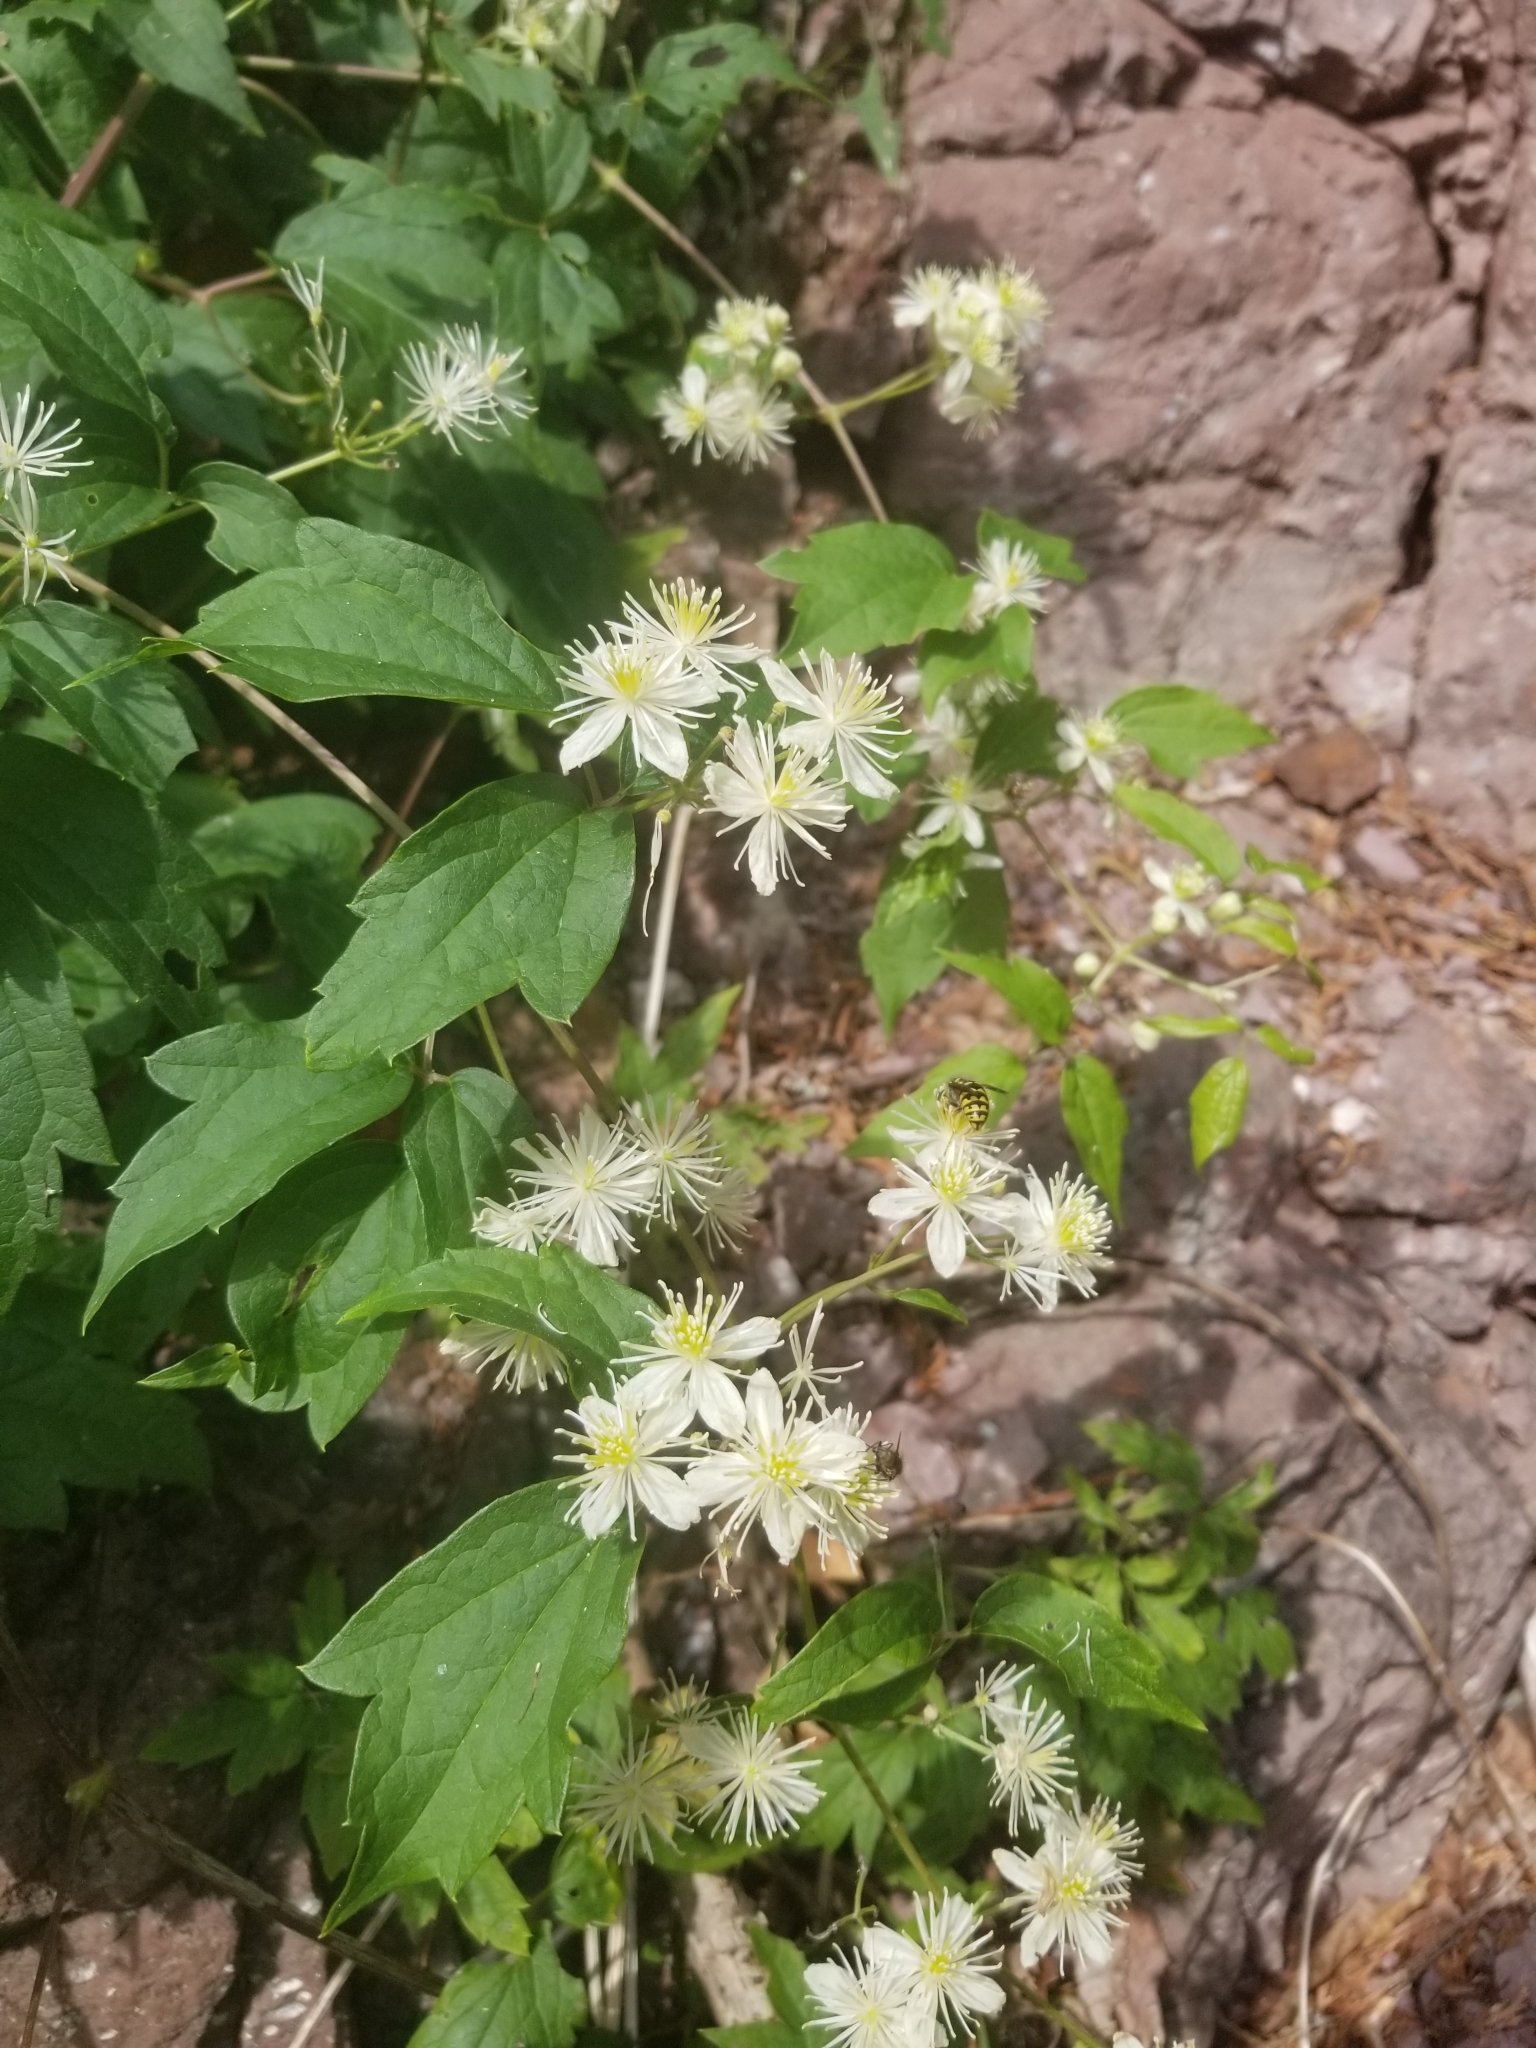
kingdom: Plantae
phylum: Tracheophyta
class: Magnoliopsida
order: Ranunculales
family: Ranunculaceae
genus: Clematis
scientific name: Clematis virginiana
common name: Virgin's-bower
